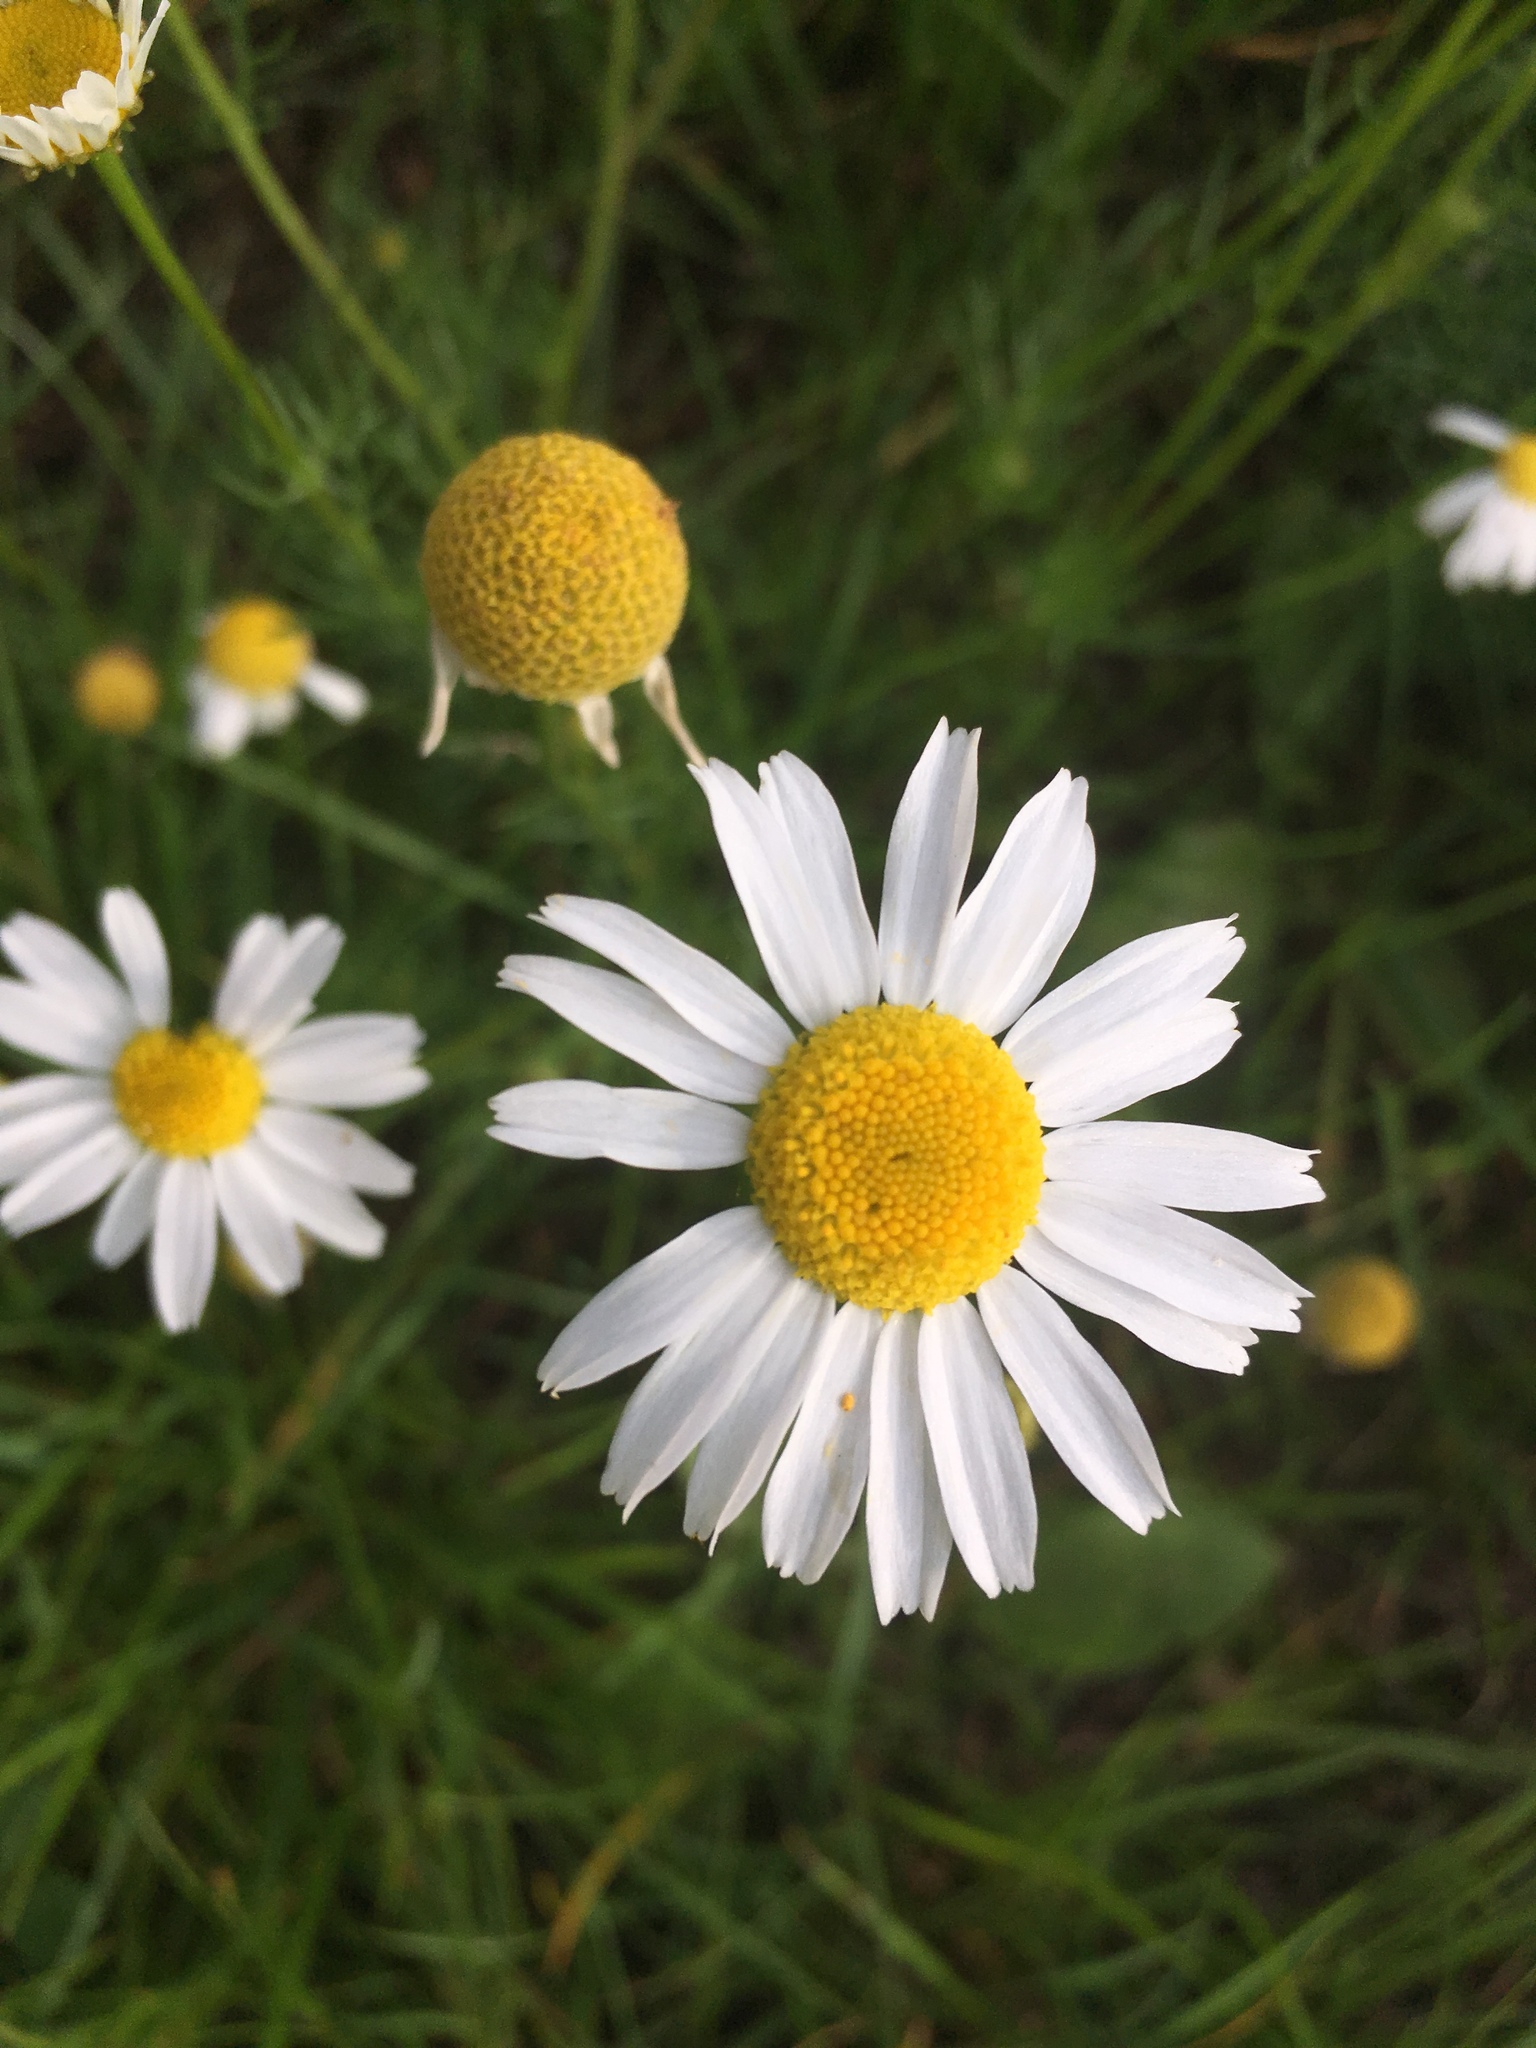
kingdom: Plantae
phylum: Tracheophyta
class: Magnoliopsida
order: Asterales
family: Asteraceae
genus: Tripleurospermum
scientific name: Tripleurospermum inodorum
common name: Scentless mayweed
